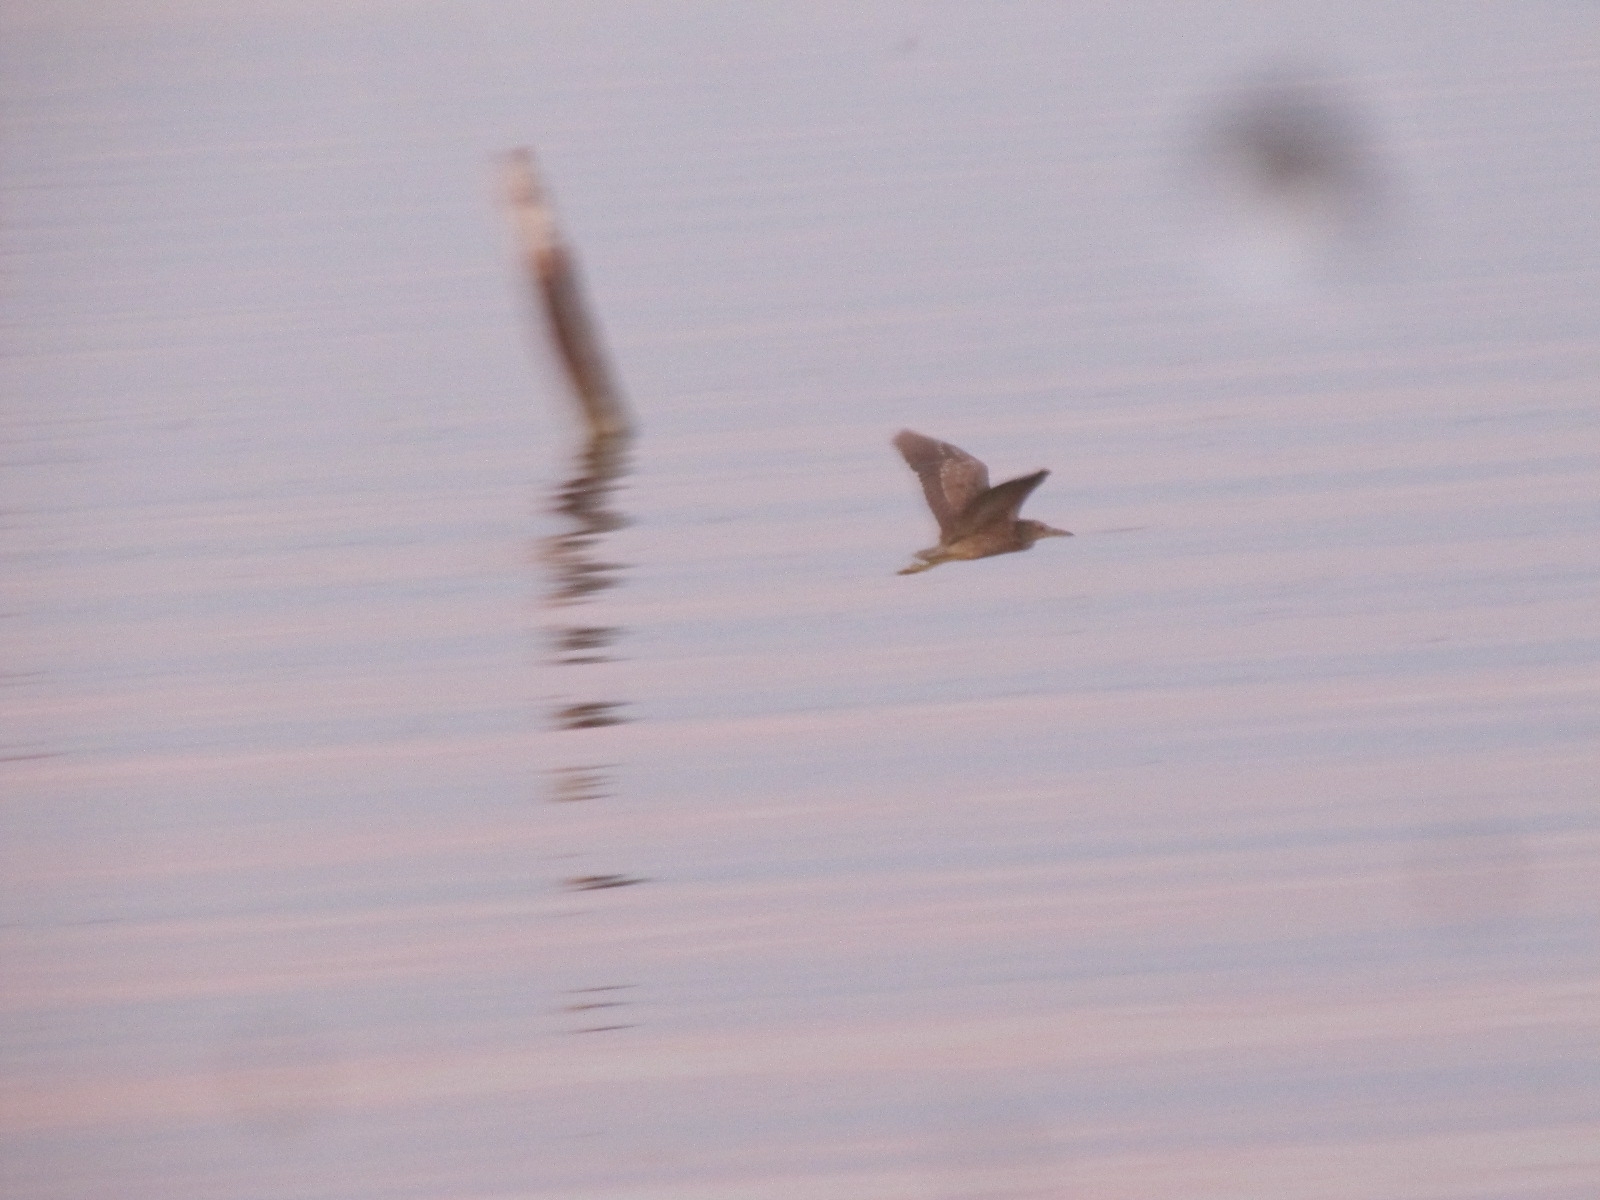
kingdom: Animalia
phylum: Chordata
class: Aves
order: Pelecaniformes
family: Ardeidae
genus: Nycticorax
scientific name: Nycticorax nycticorax
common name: Black-crowned night heron
